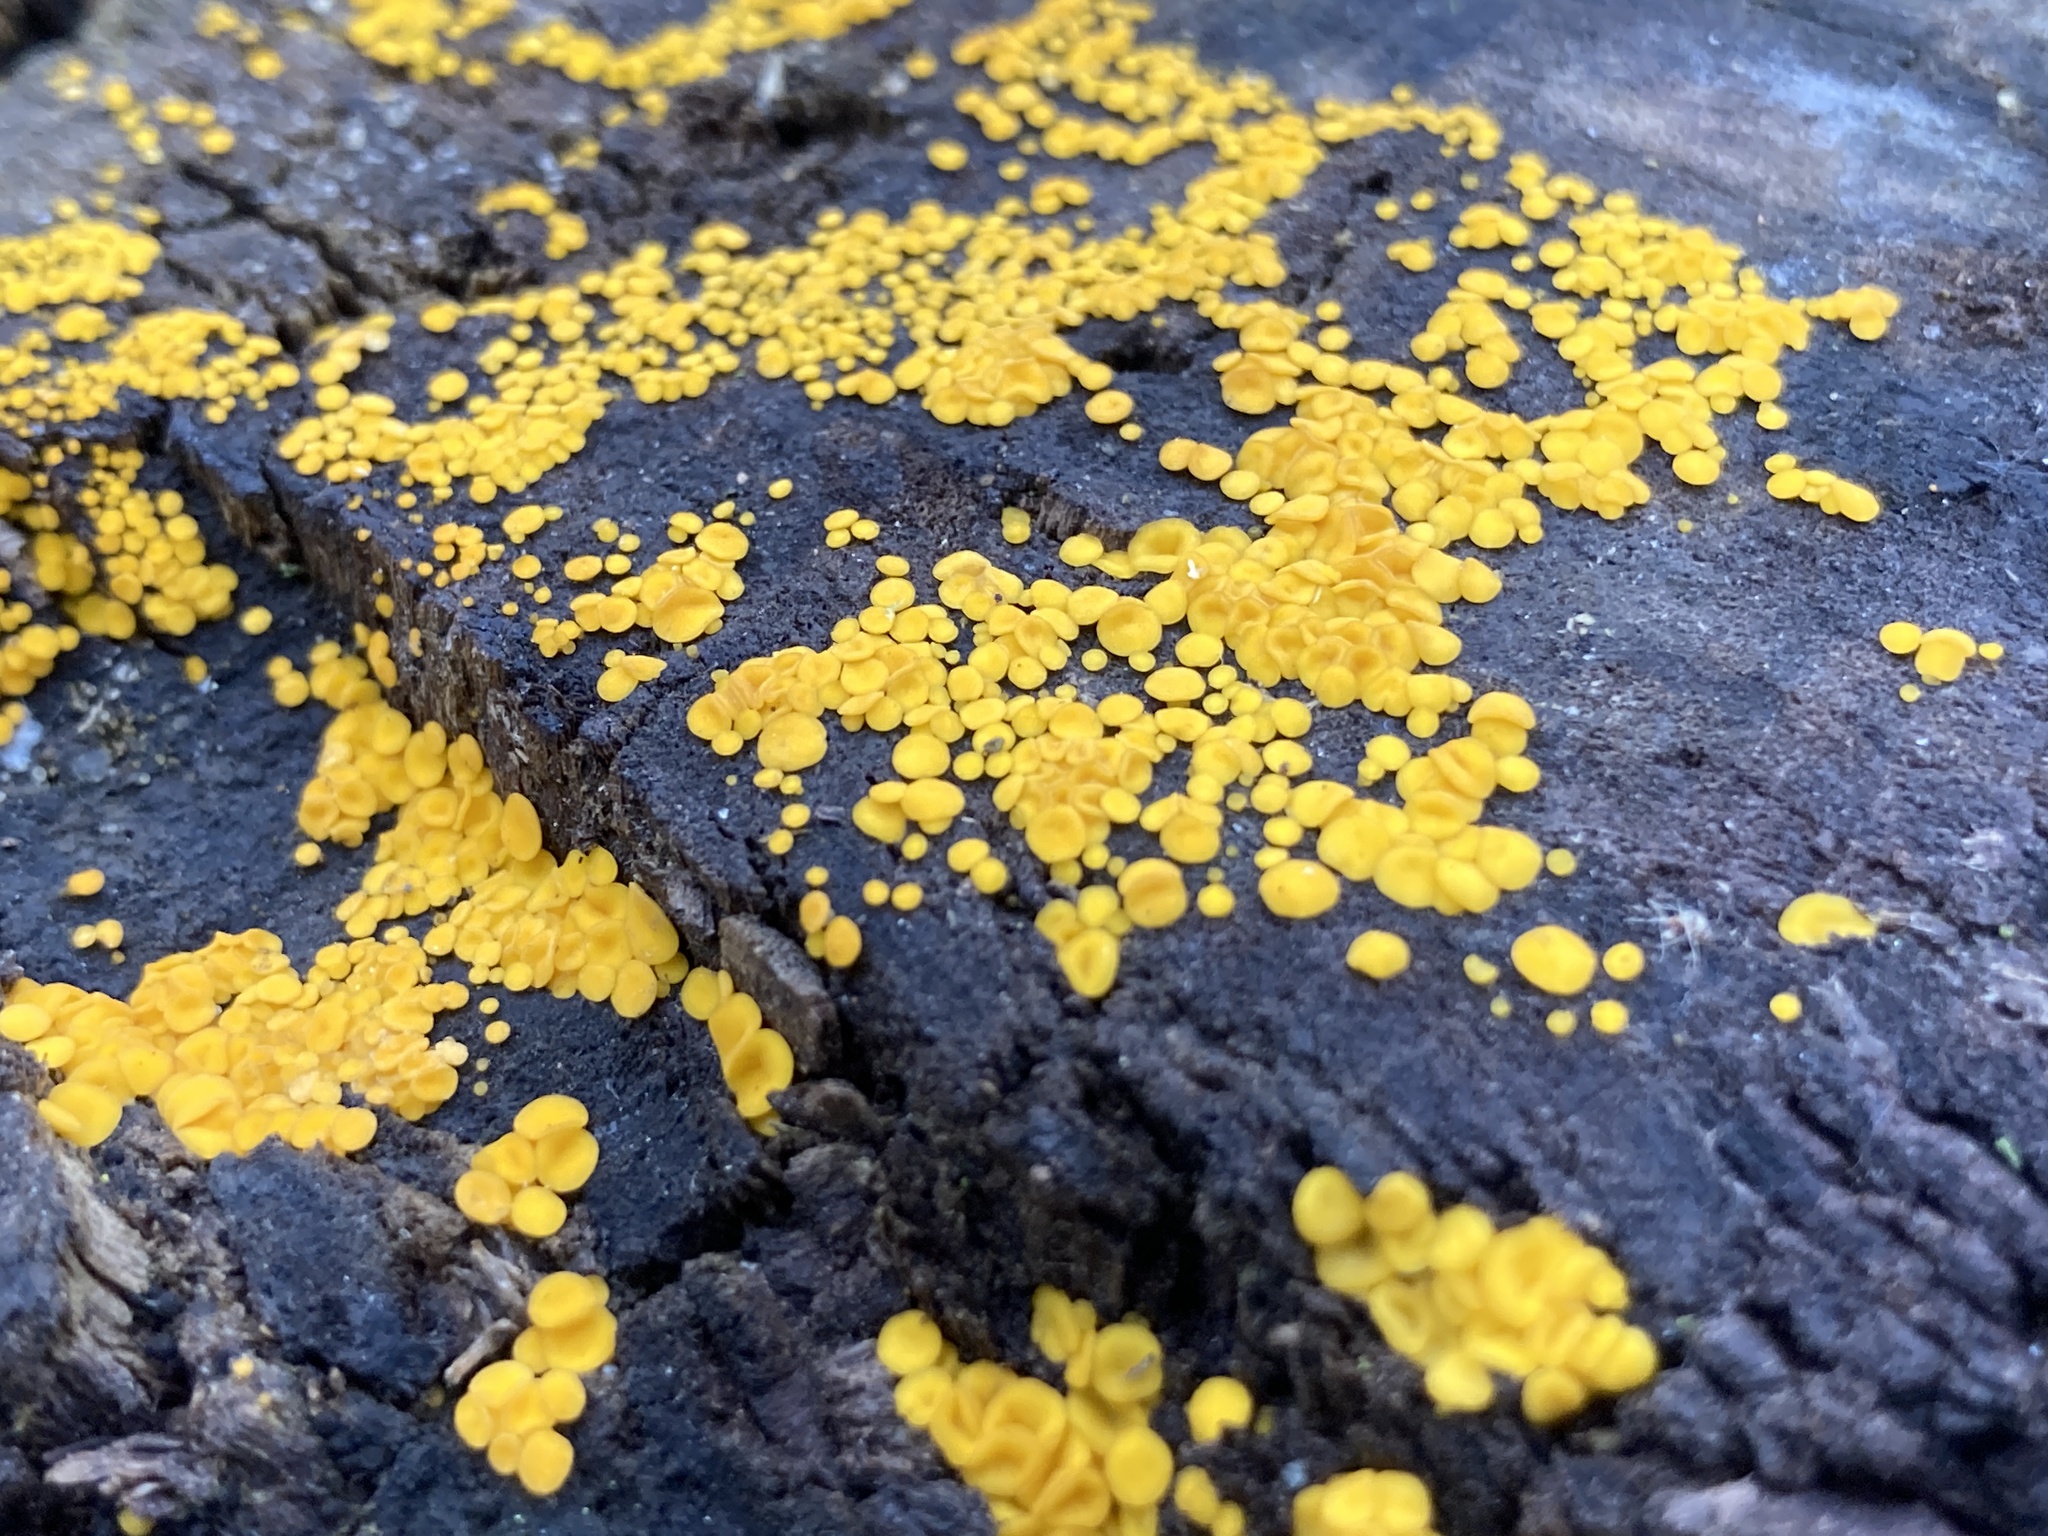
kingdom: Fungi
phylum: Ascomycota
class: Leotiomycetes
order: Helotiales
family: Pezizellaceae
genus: Calycina
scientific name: Calycina citrina
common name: Yellow fairy cups
